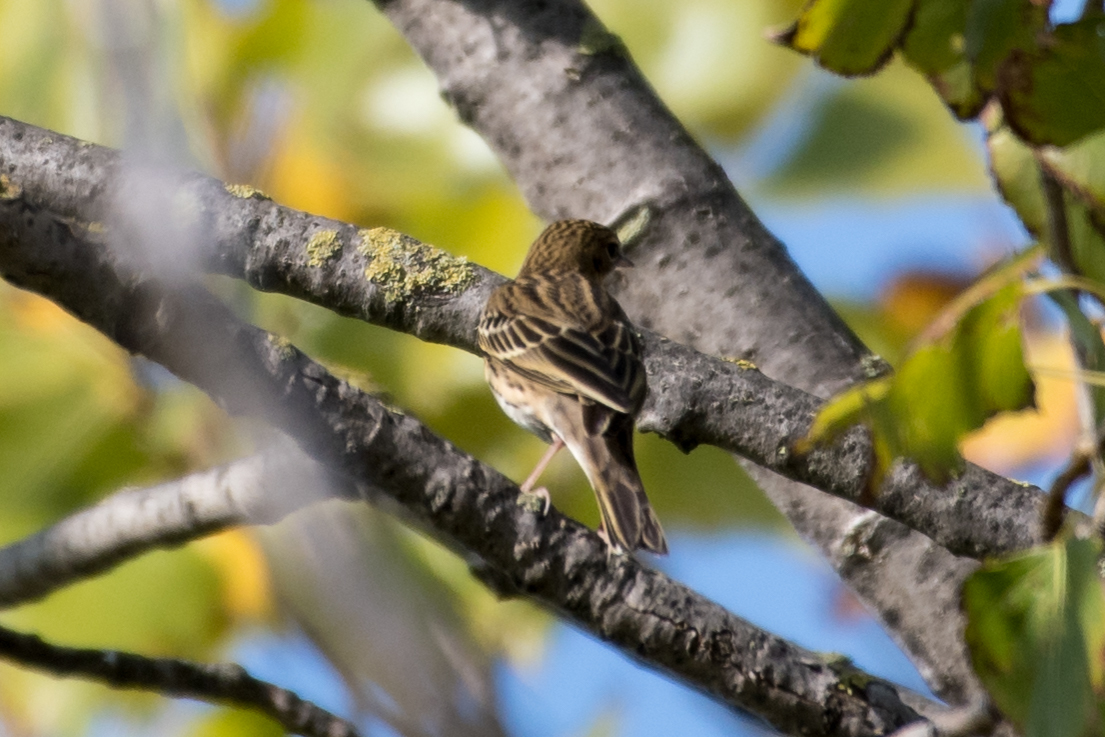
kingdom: Animalia
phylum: Chordata
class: Aves
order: Passeriformes
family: Motacillidae
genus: Anthus
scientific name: Anthus trivialis
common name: Tree pipit
